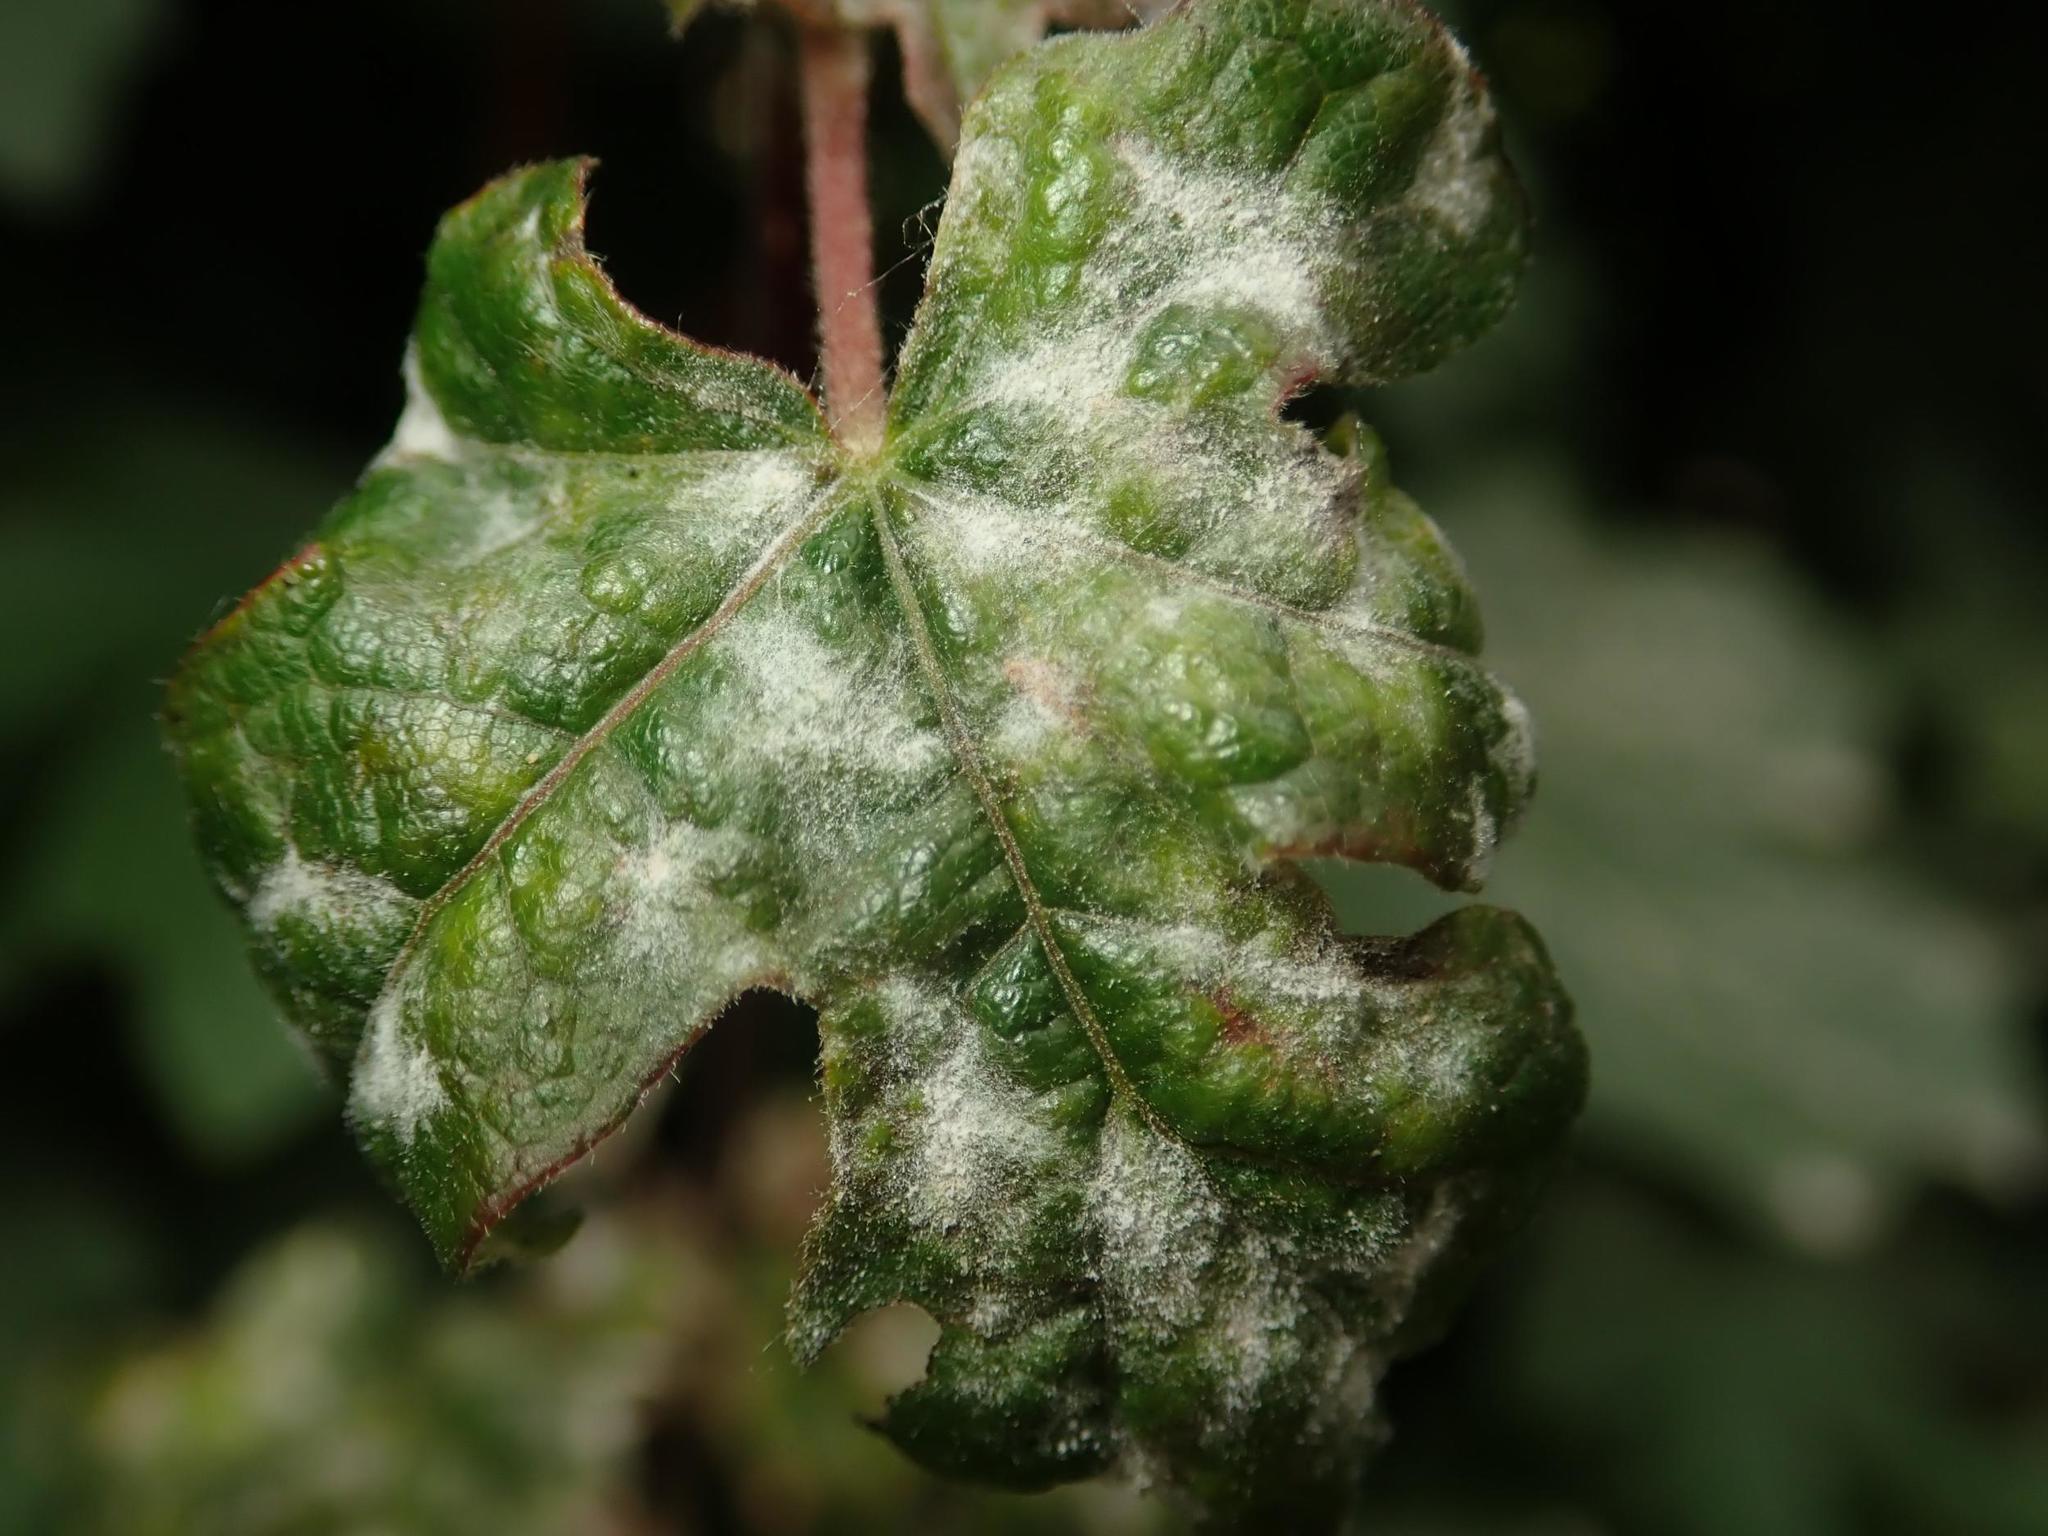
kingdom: Fungi
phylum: Ascomycota
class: Leotiomycetes
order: Helotiales
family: Erysiphaceae
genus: Sawadaea
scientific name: Sawadaea bicornis
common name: Maple mildew
